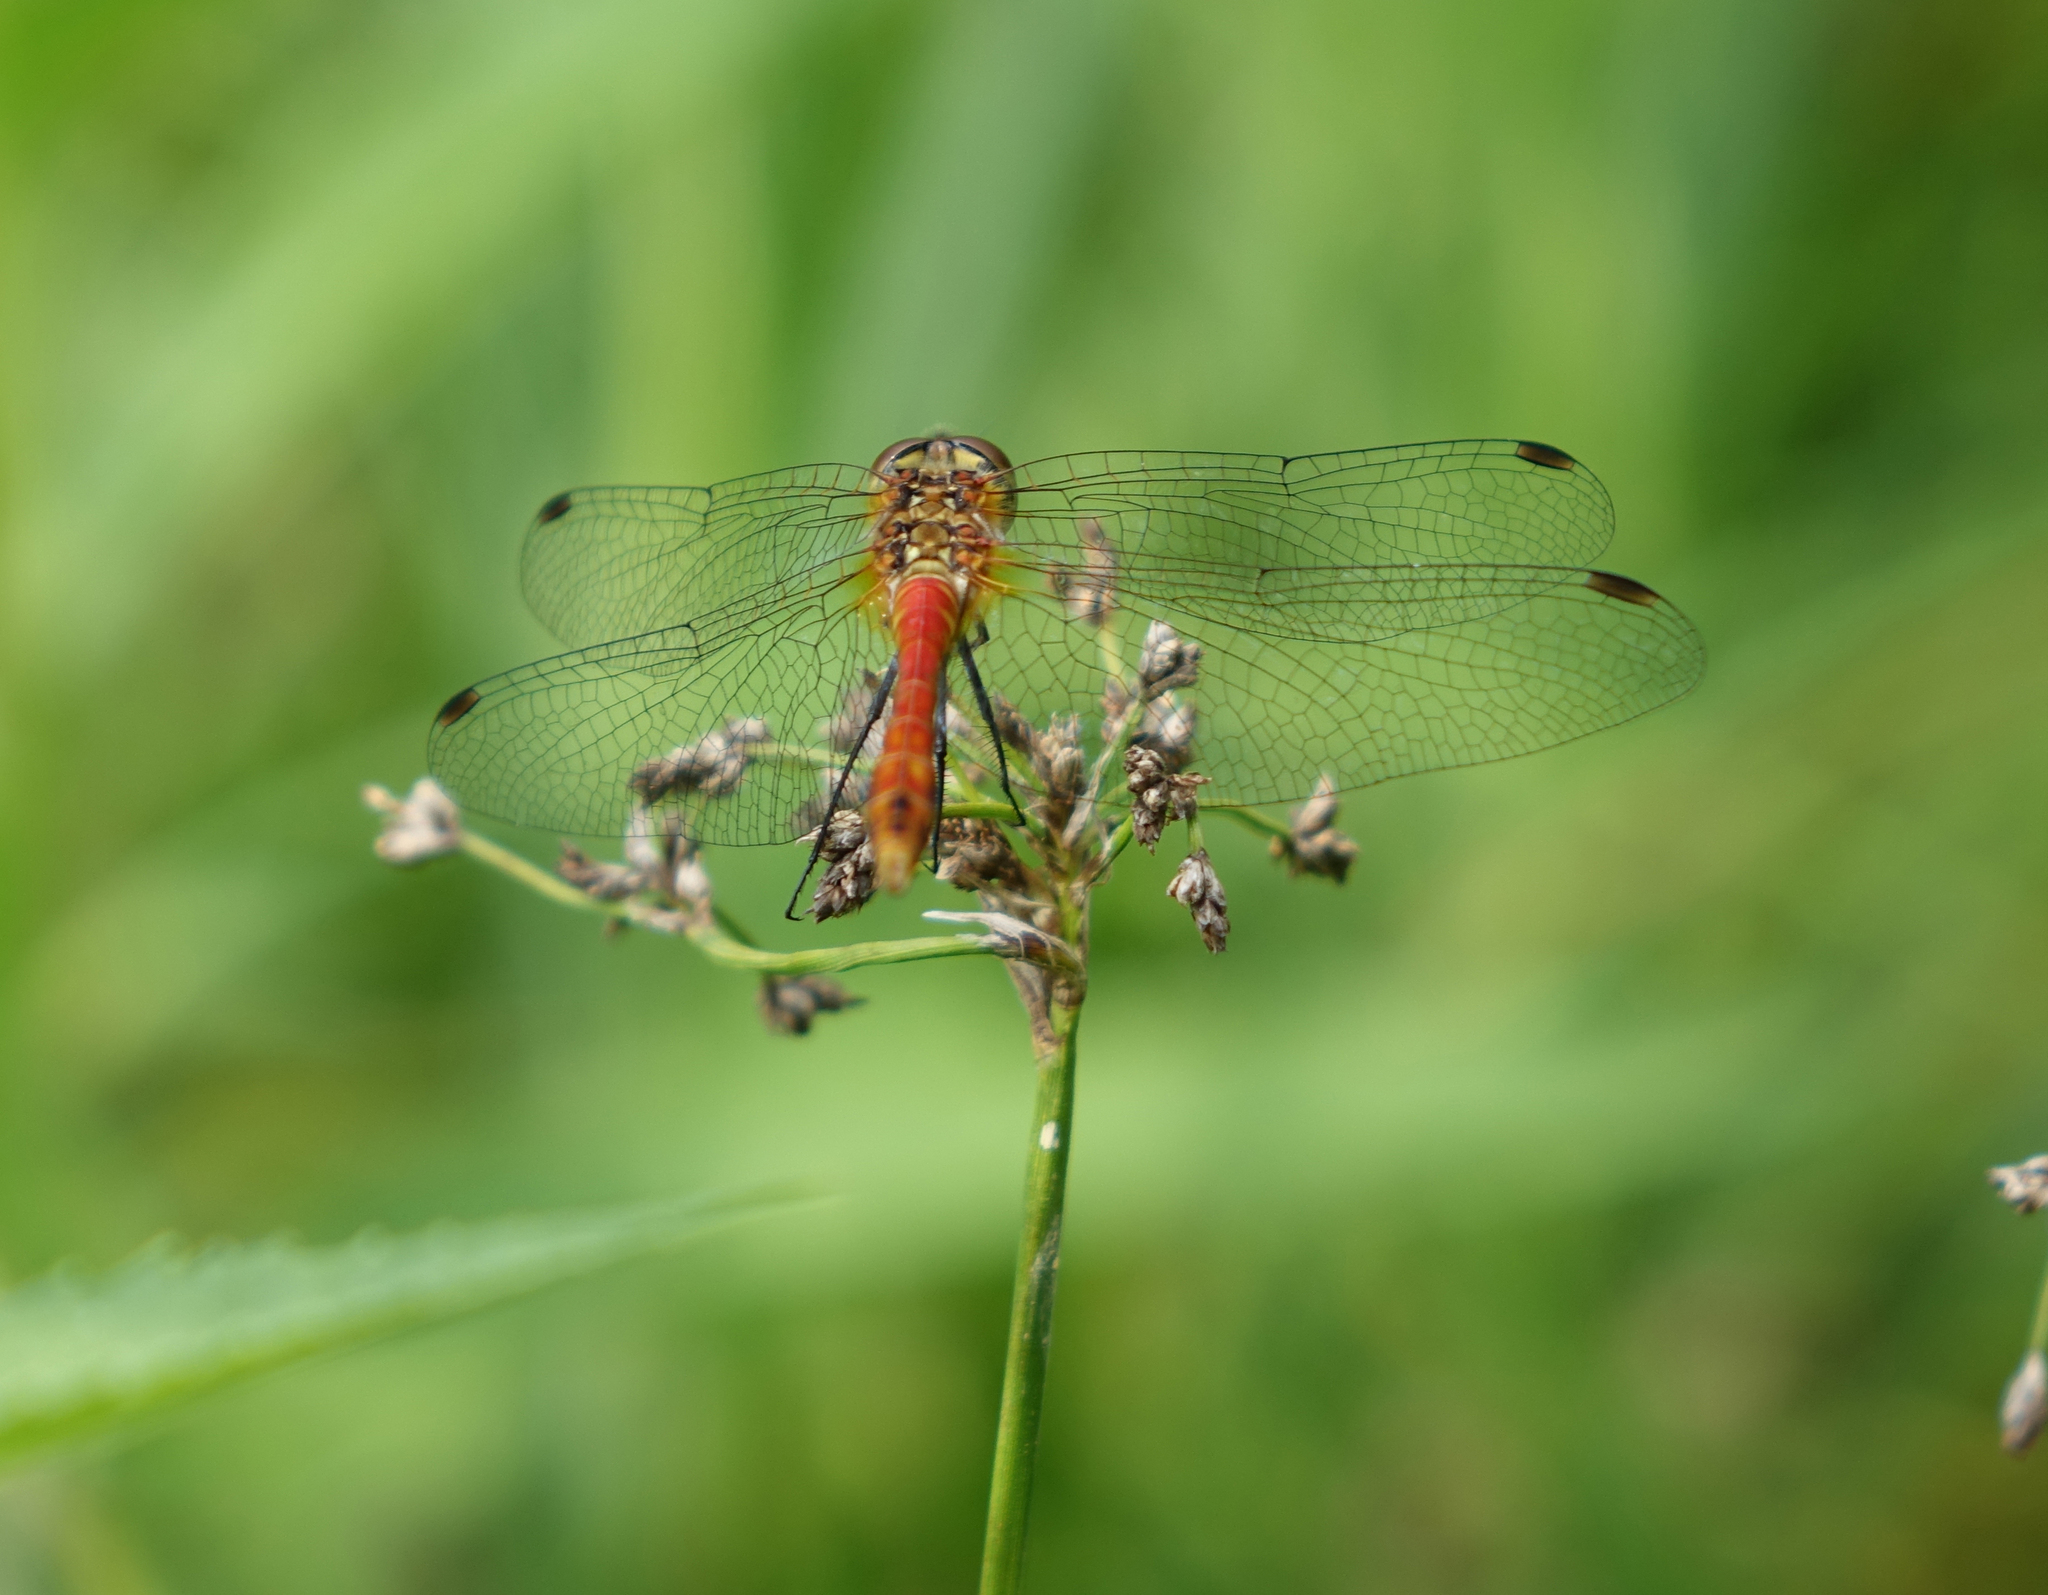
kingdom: Animalia
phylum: Arthropoda
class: Insecta
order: Odonata
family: Libellulidae
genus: Sympetrum
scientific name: Sympetrum sanguineum
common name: Ruddy darter
